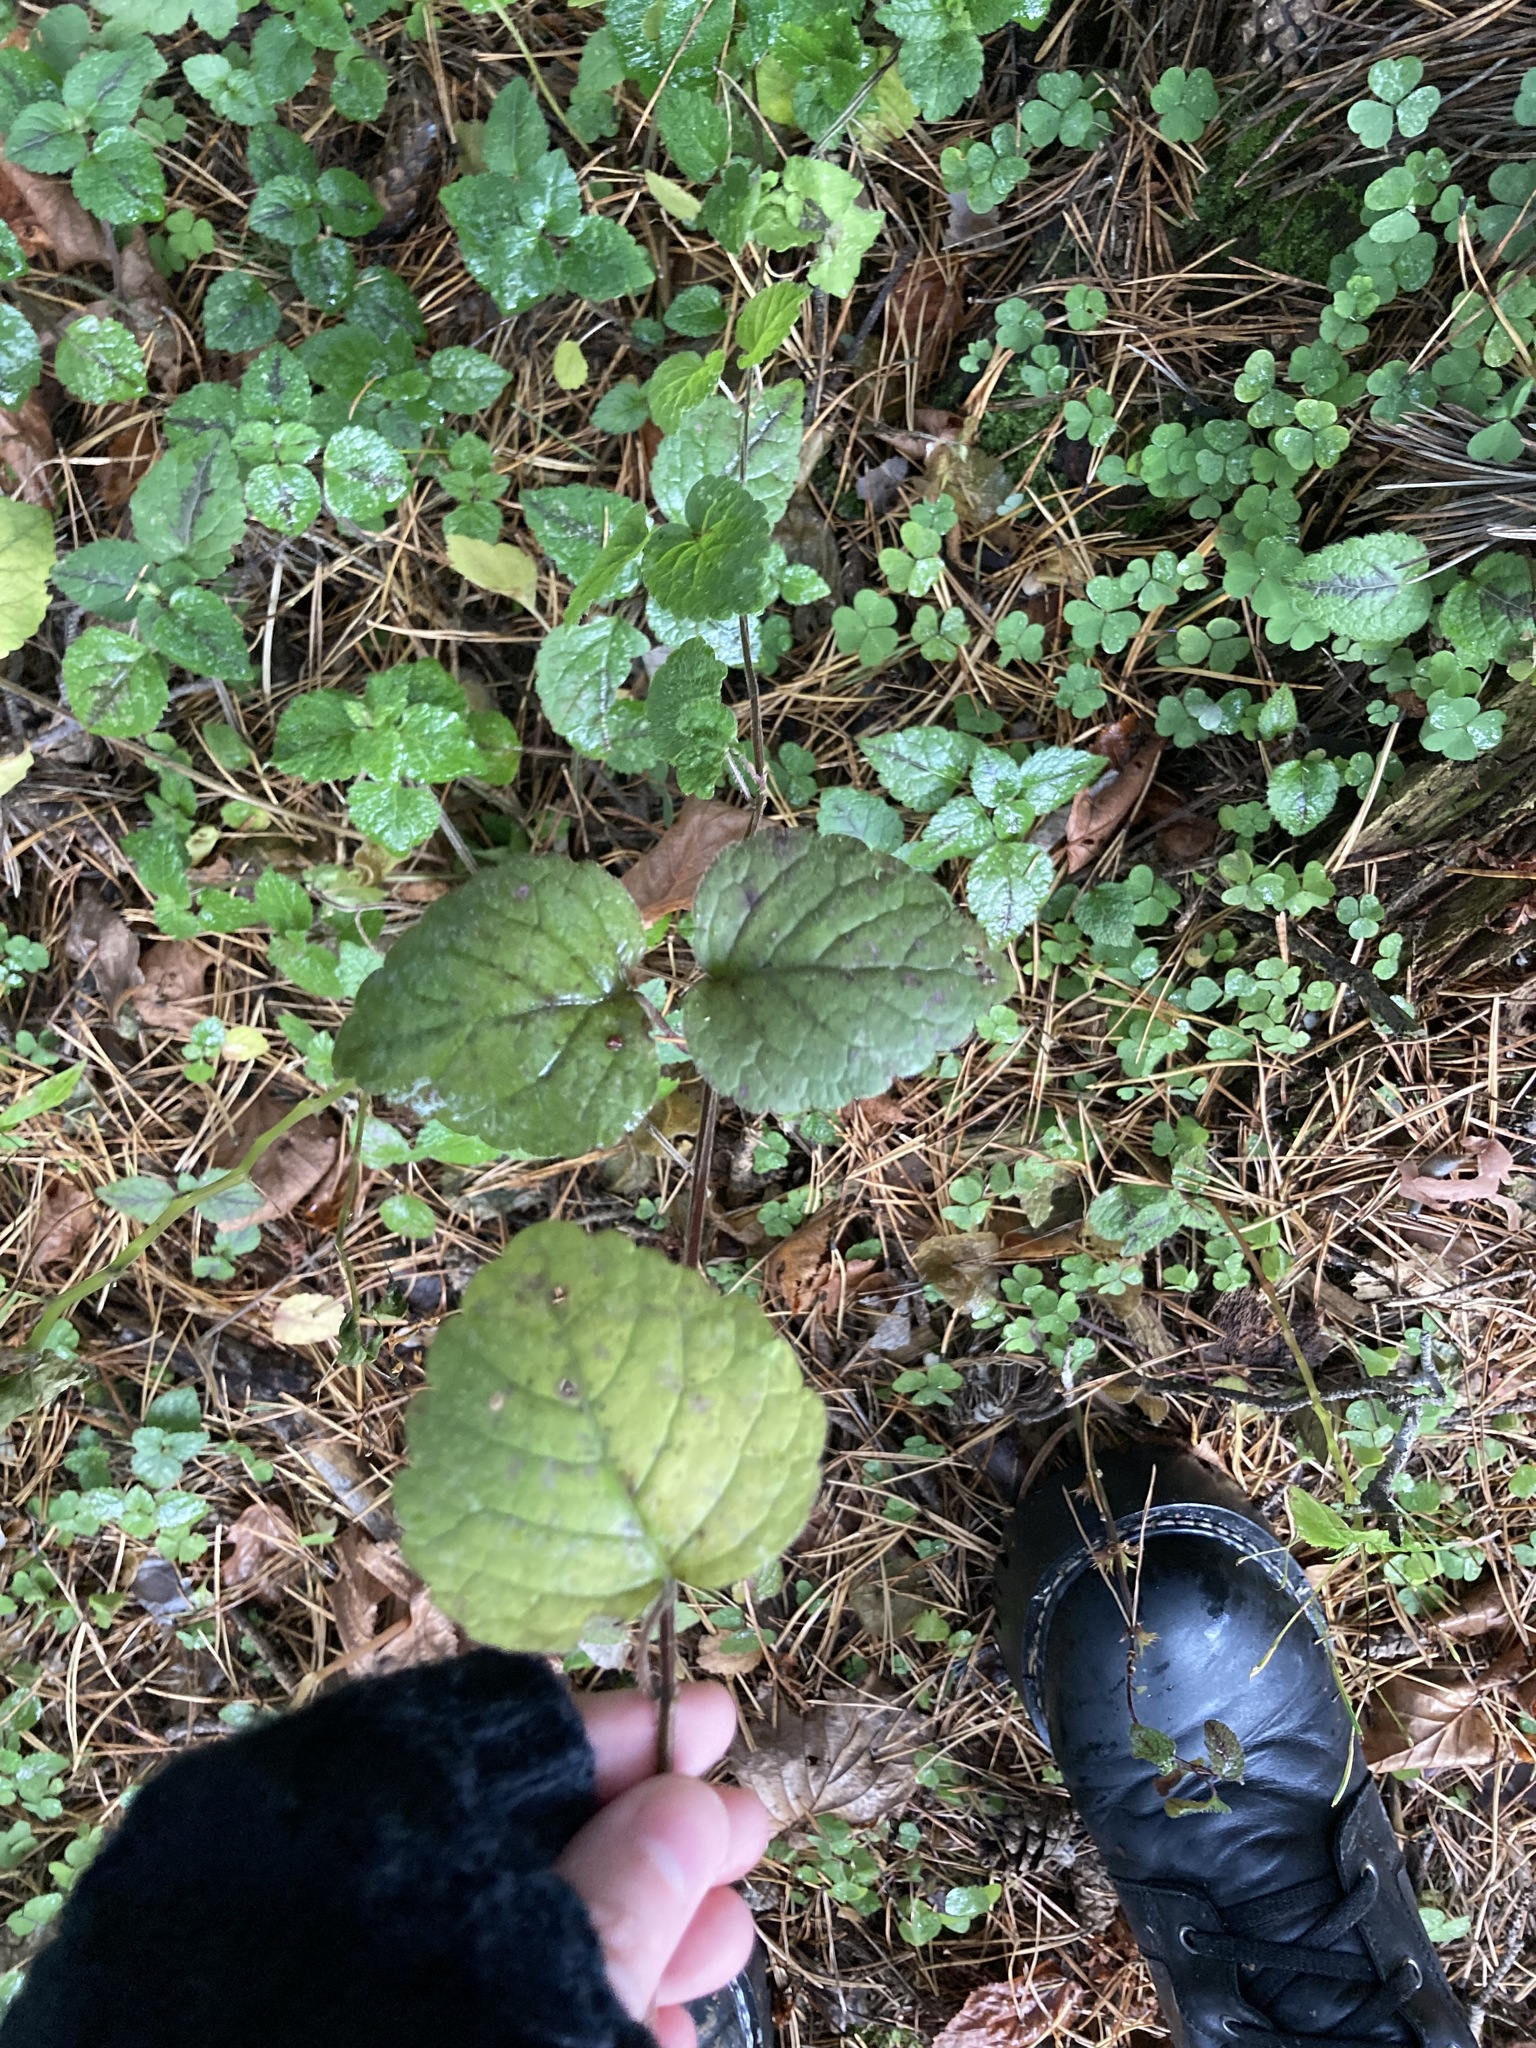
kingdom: Plantae
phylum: Tracheophyta
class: Magnoliopsida
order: Lamiales
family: Lamiaceae
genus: Lamium
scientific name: Lamium galeobdolon
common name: Yellow archangel
